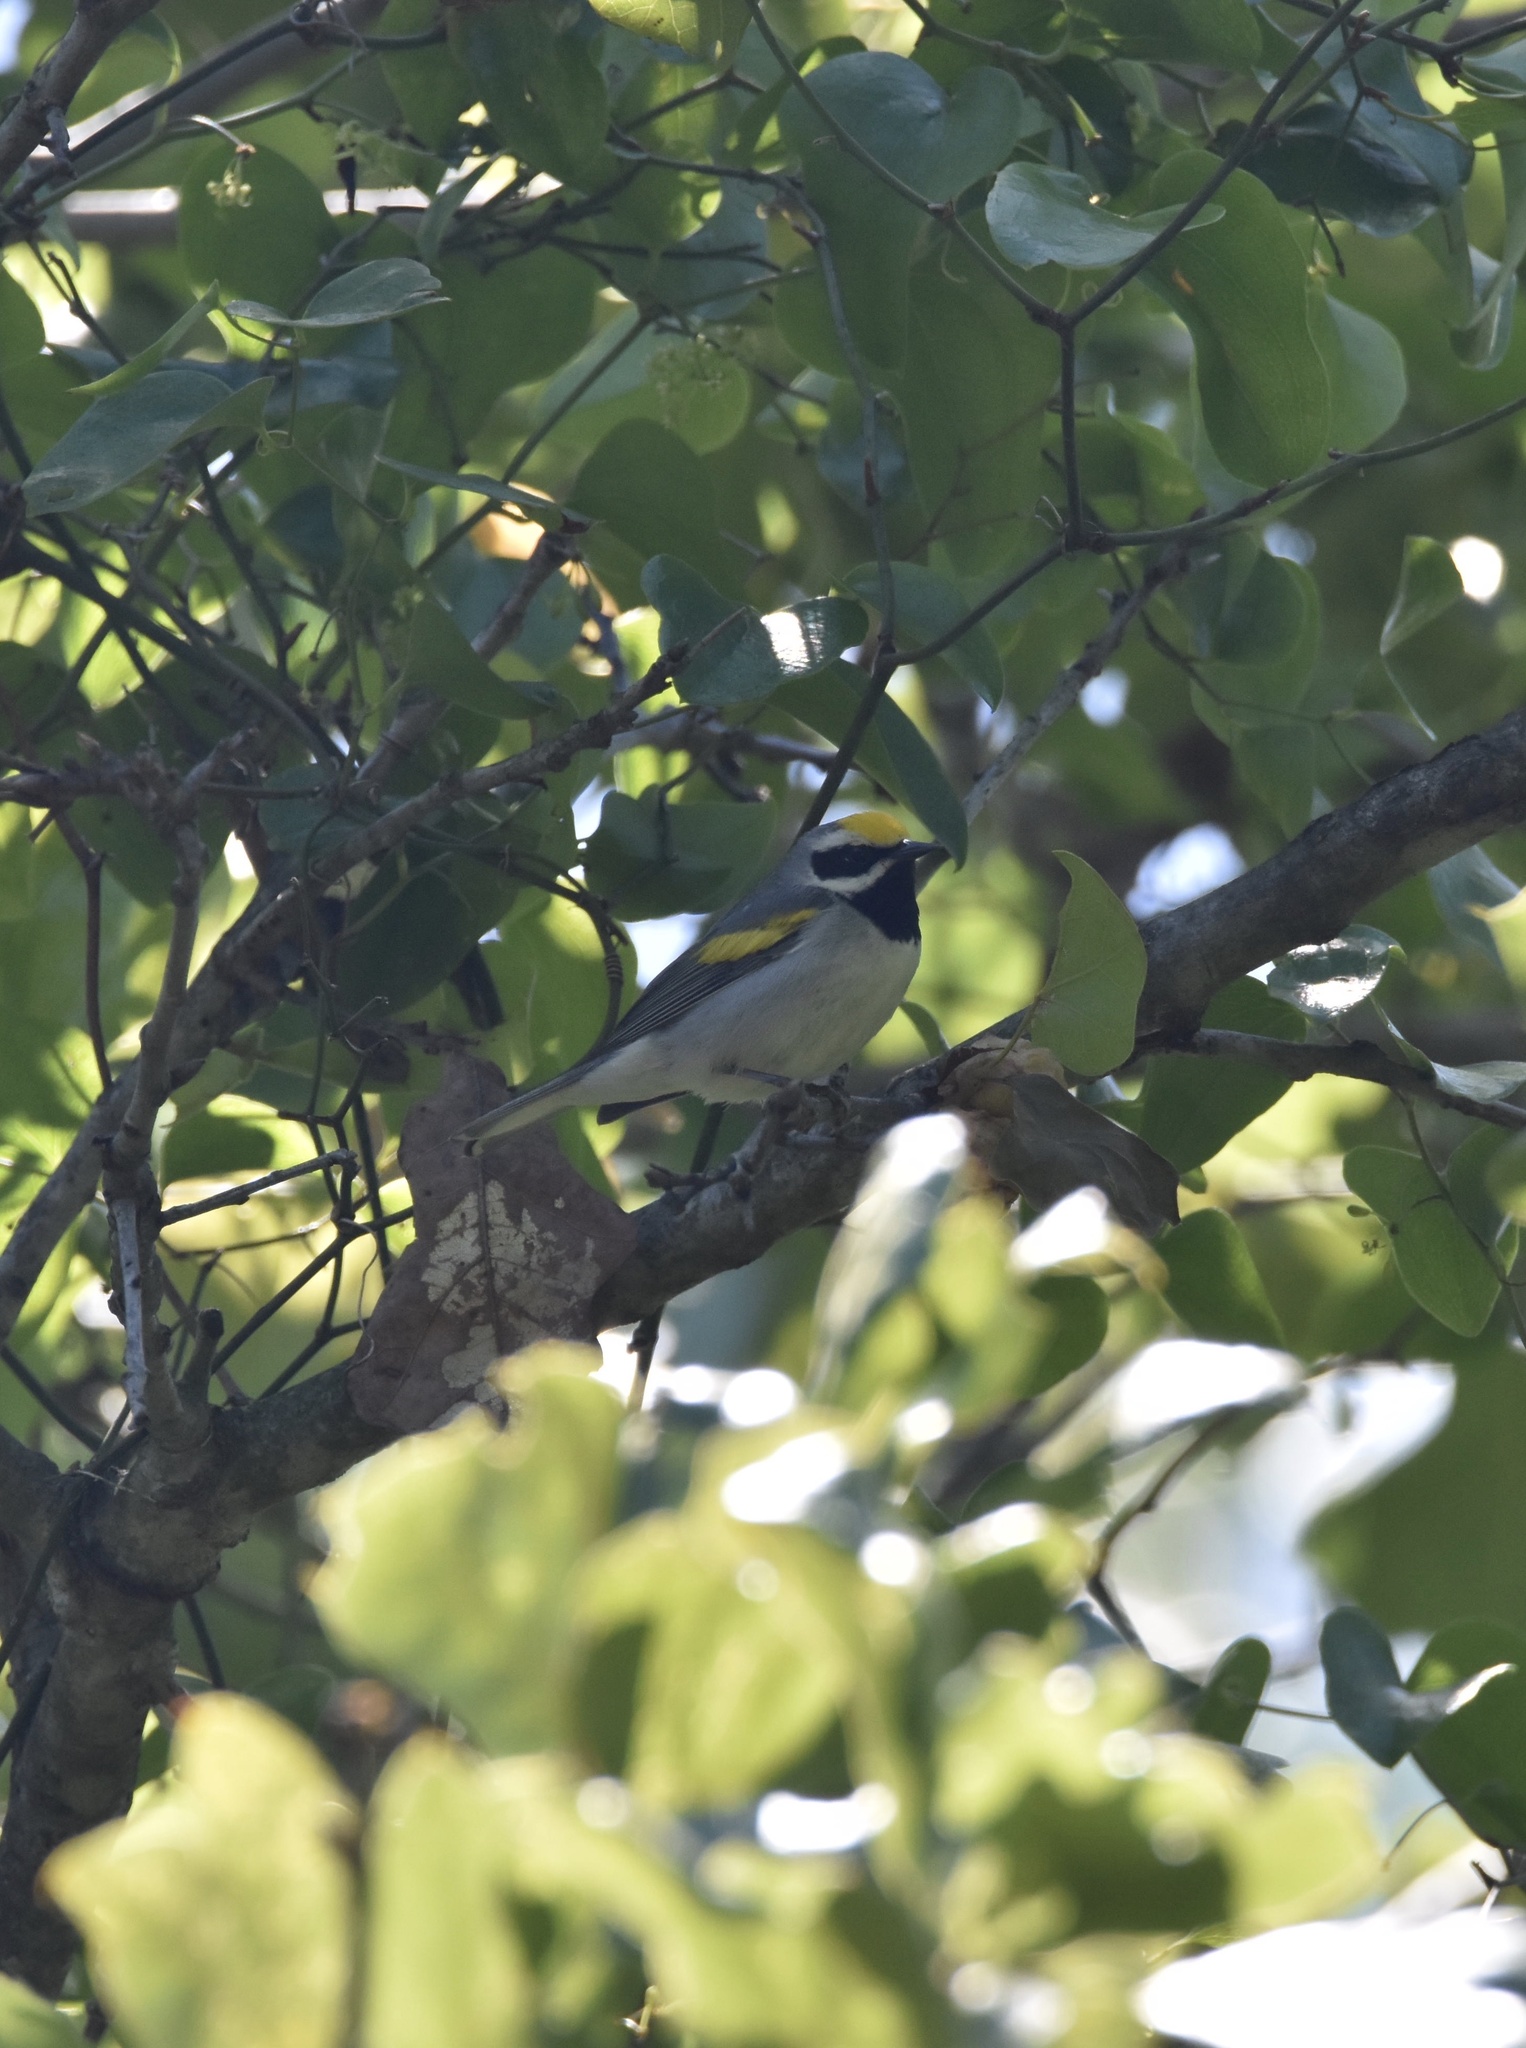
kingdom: Animalia
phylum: Chordata
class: Aves
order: Passeriformes
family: Parulidae
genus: Vermivora
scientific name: Vermivora chrysoptera
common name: Golden-winged warbler
